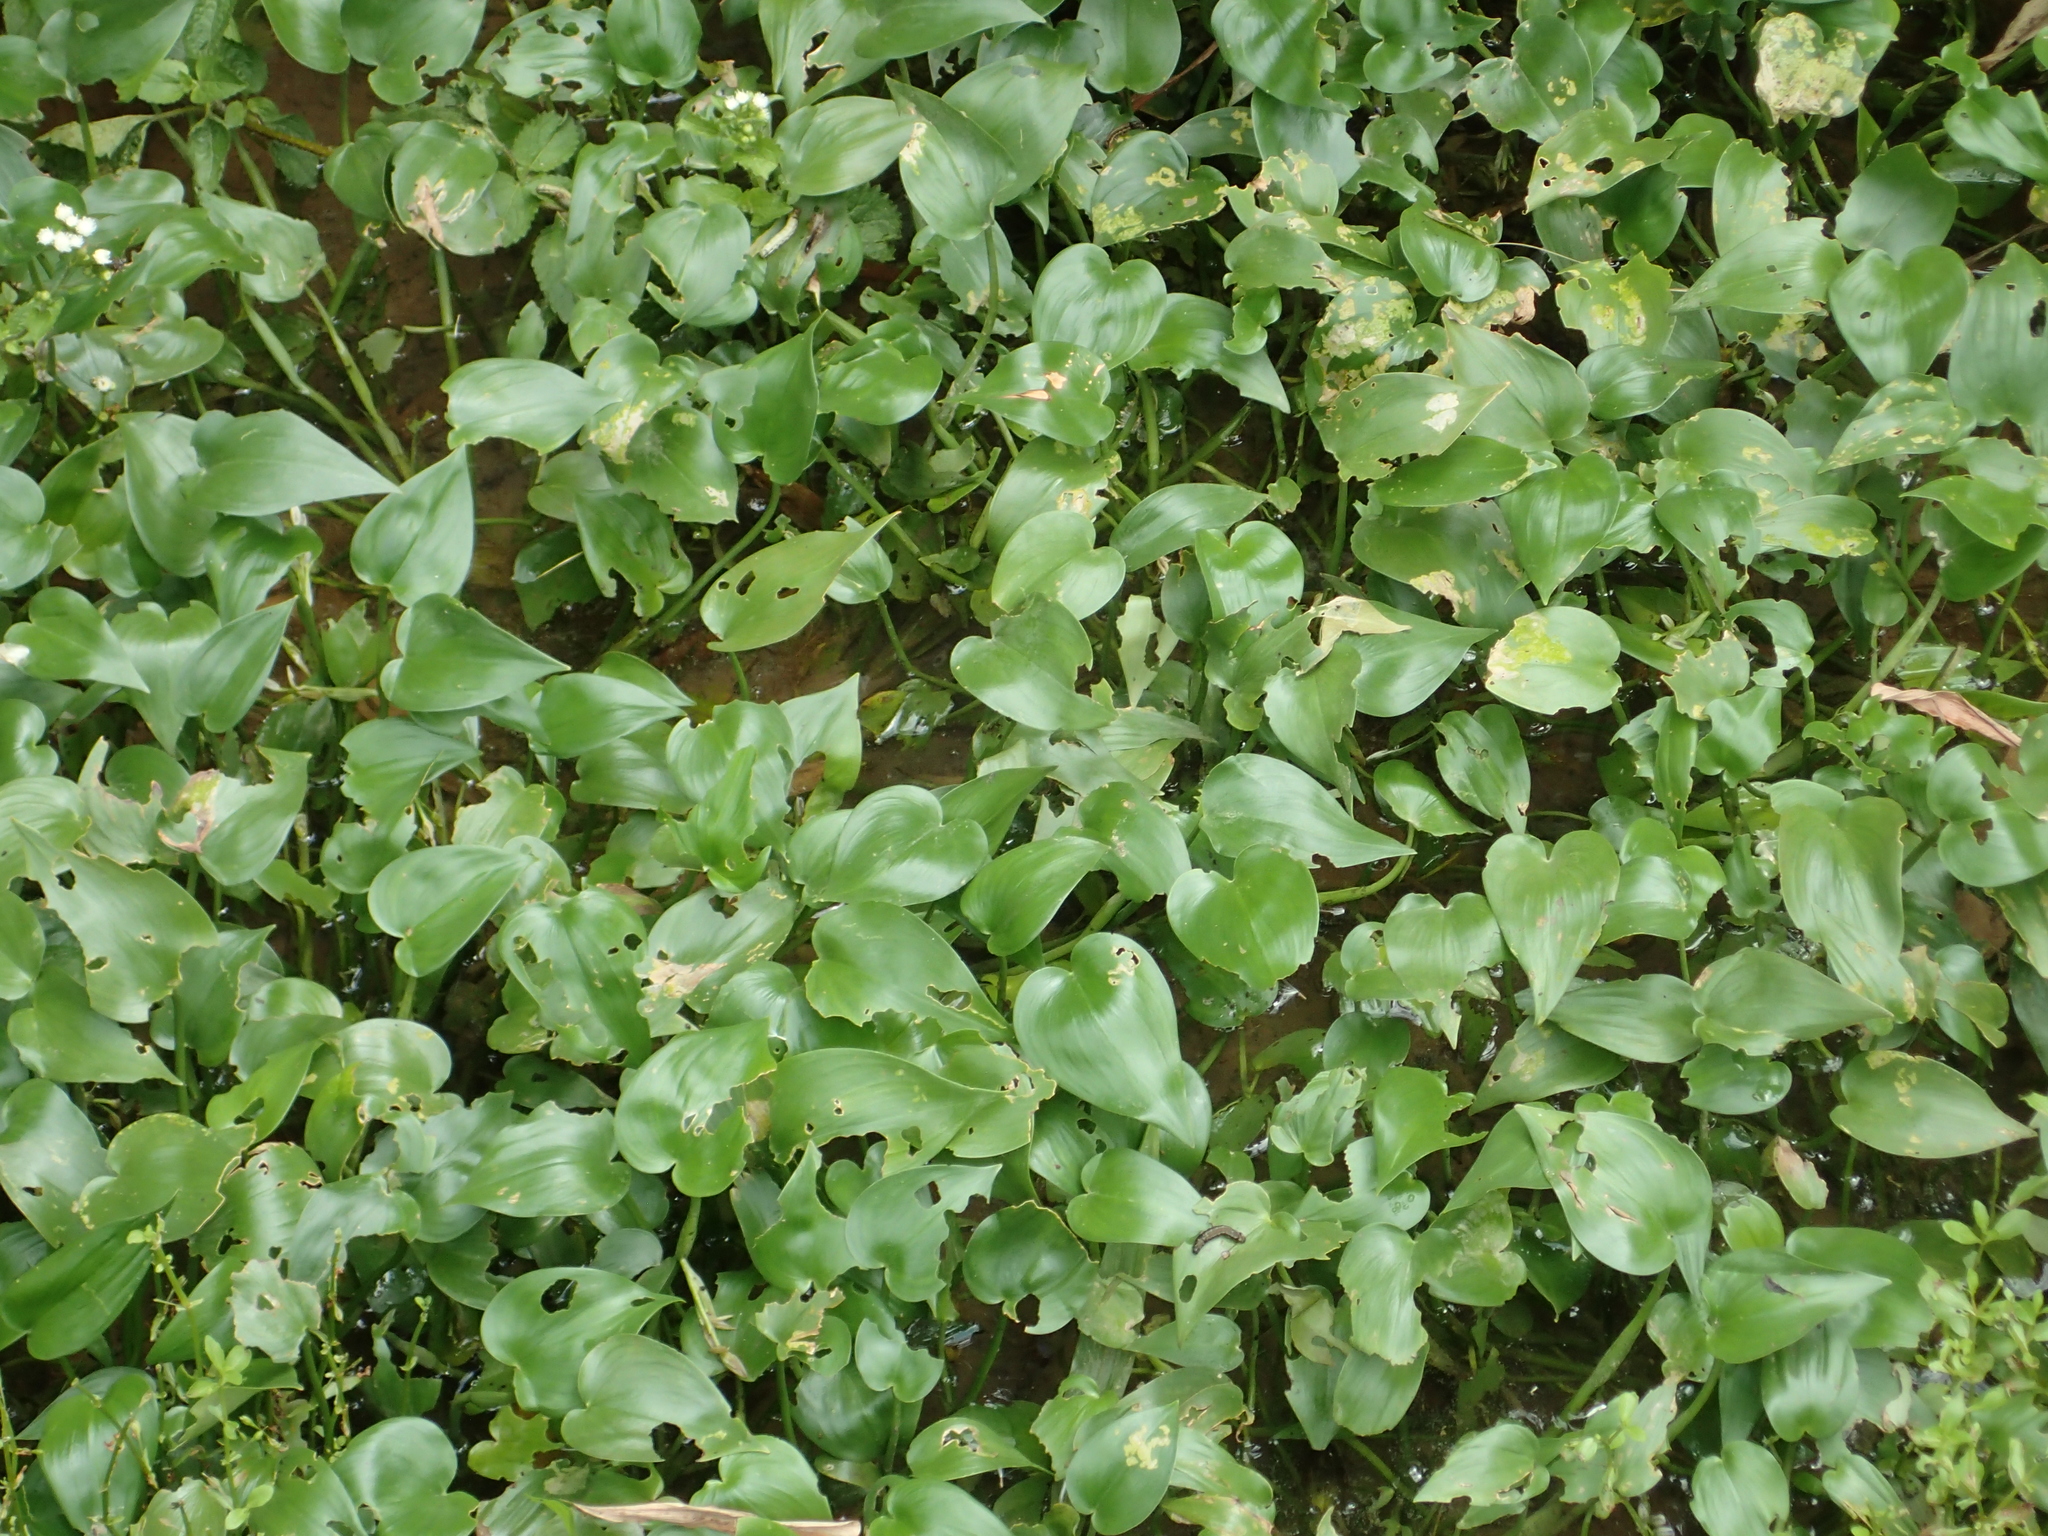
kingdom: Plantae
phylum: Tracheophyta
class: Liliopsida
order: Commelinales
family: Pontederiaceae
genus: Pontederia
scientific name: Pontederia vaginalis
